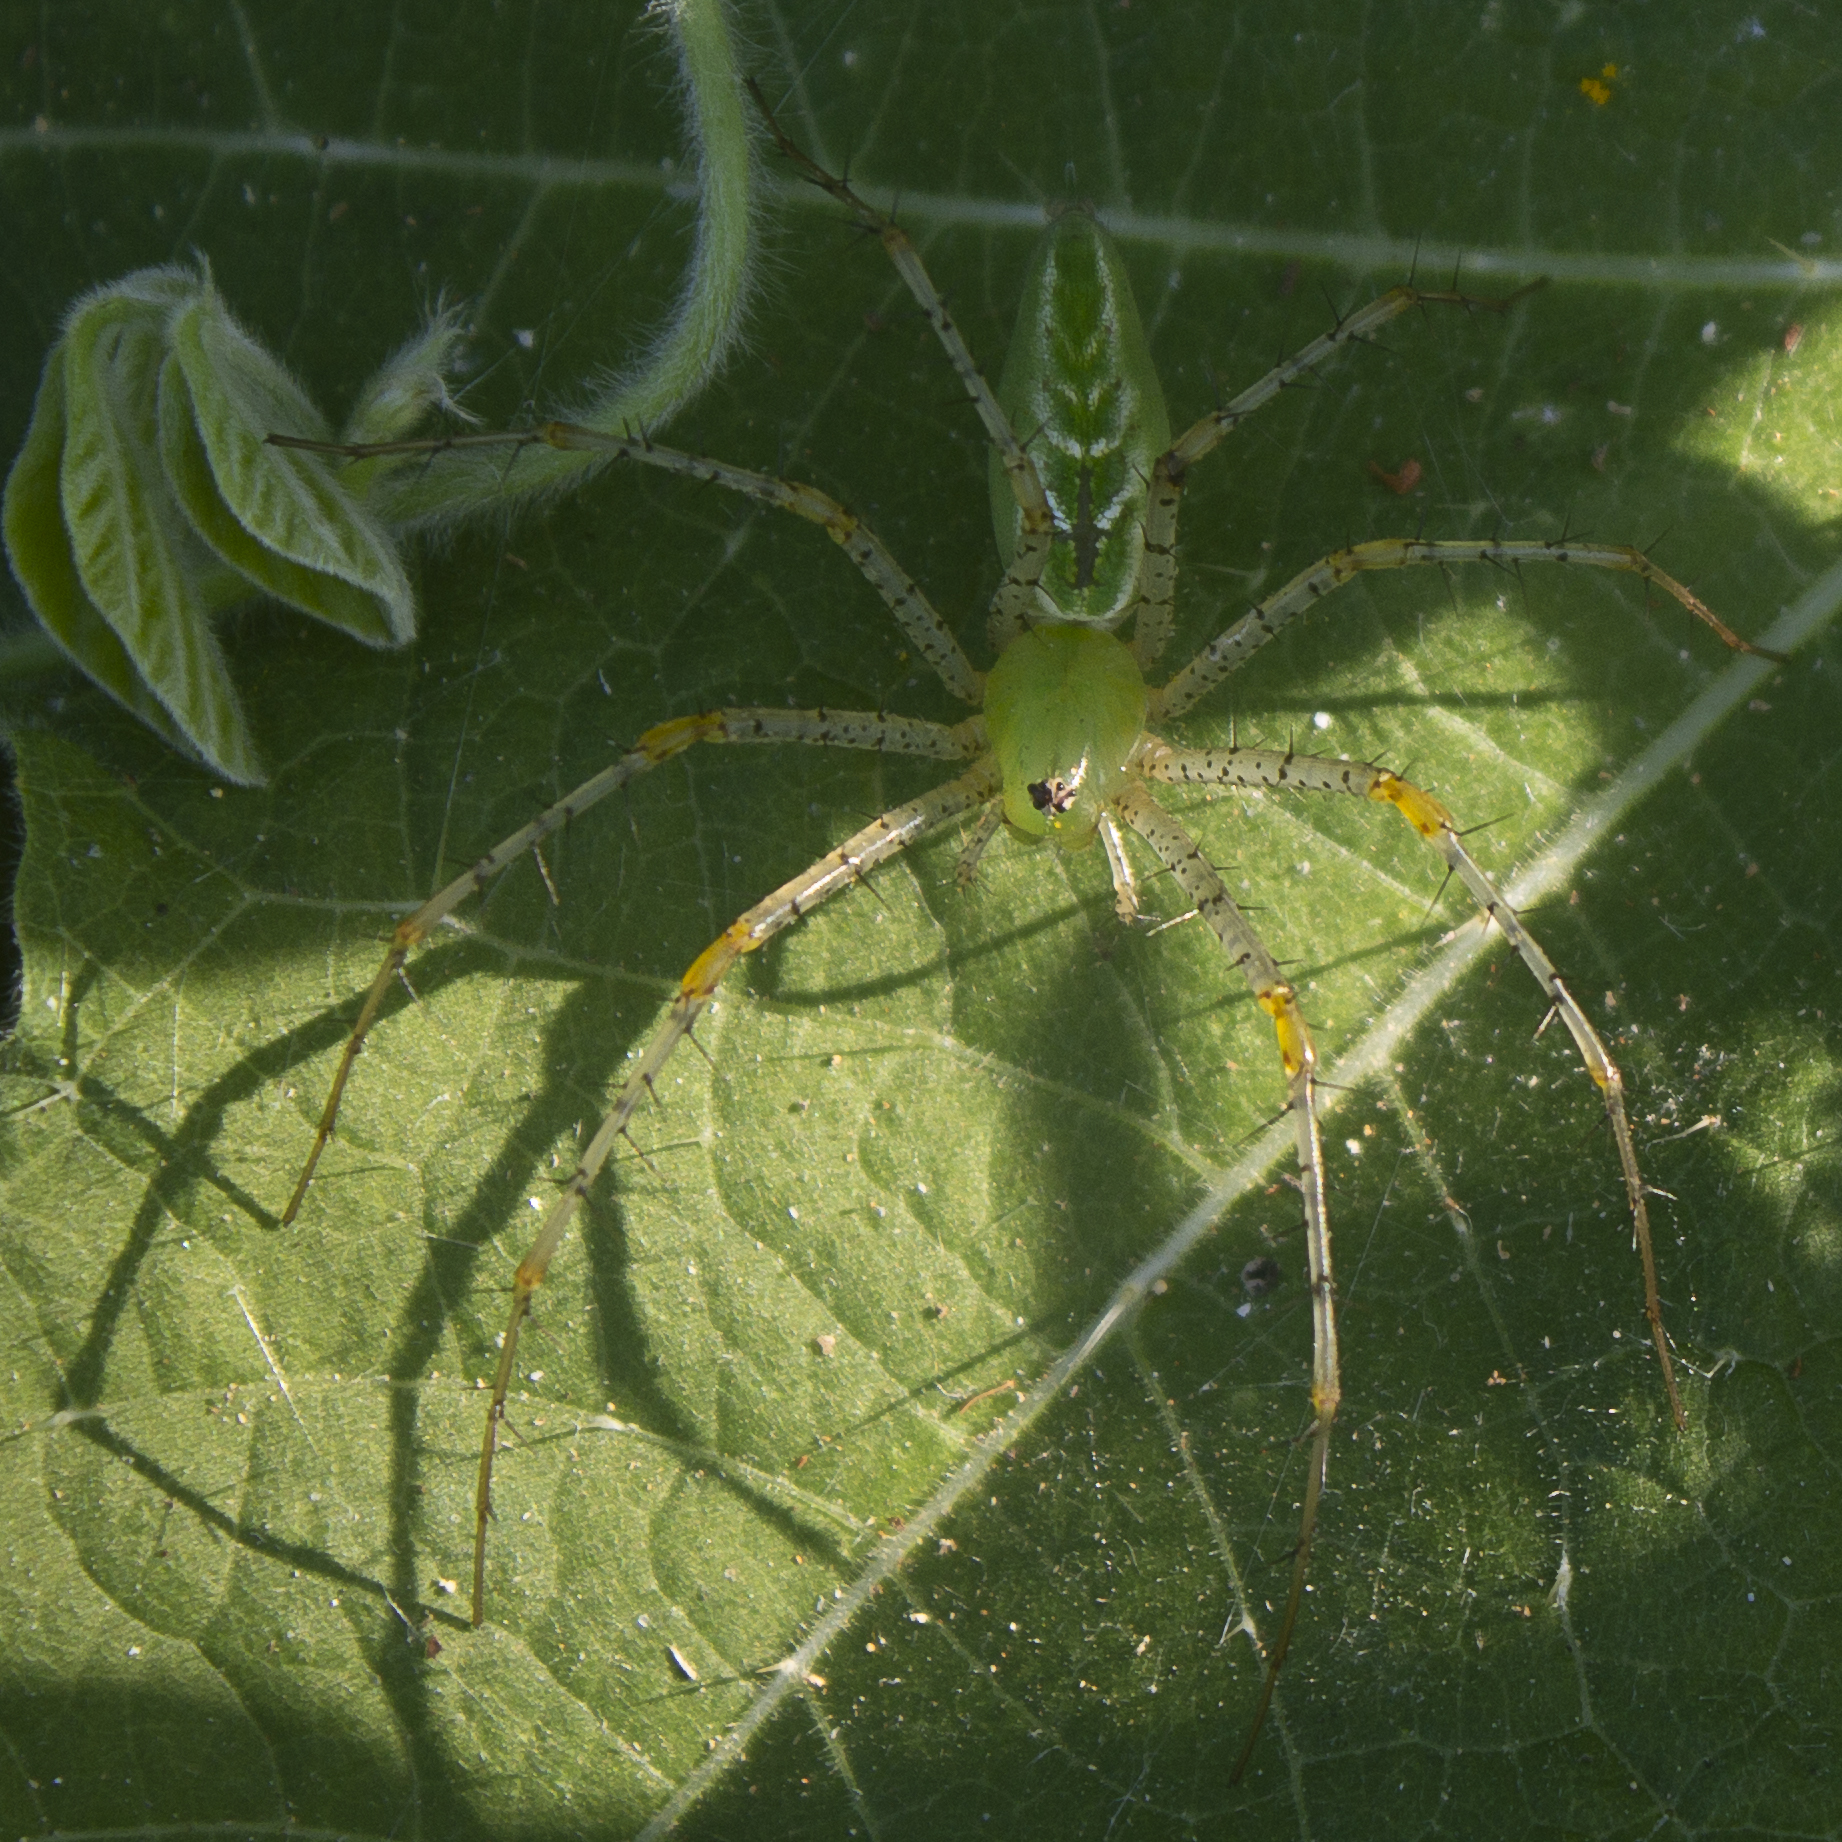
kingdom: Animalia
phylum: Arthropoda
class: Arachnida
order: Araneae
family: Oxyopidae
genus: Peucetia
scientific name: Peucetia viridans
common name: Lynx spiders
